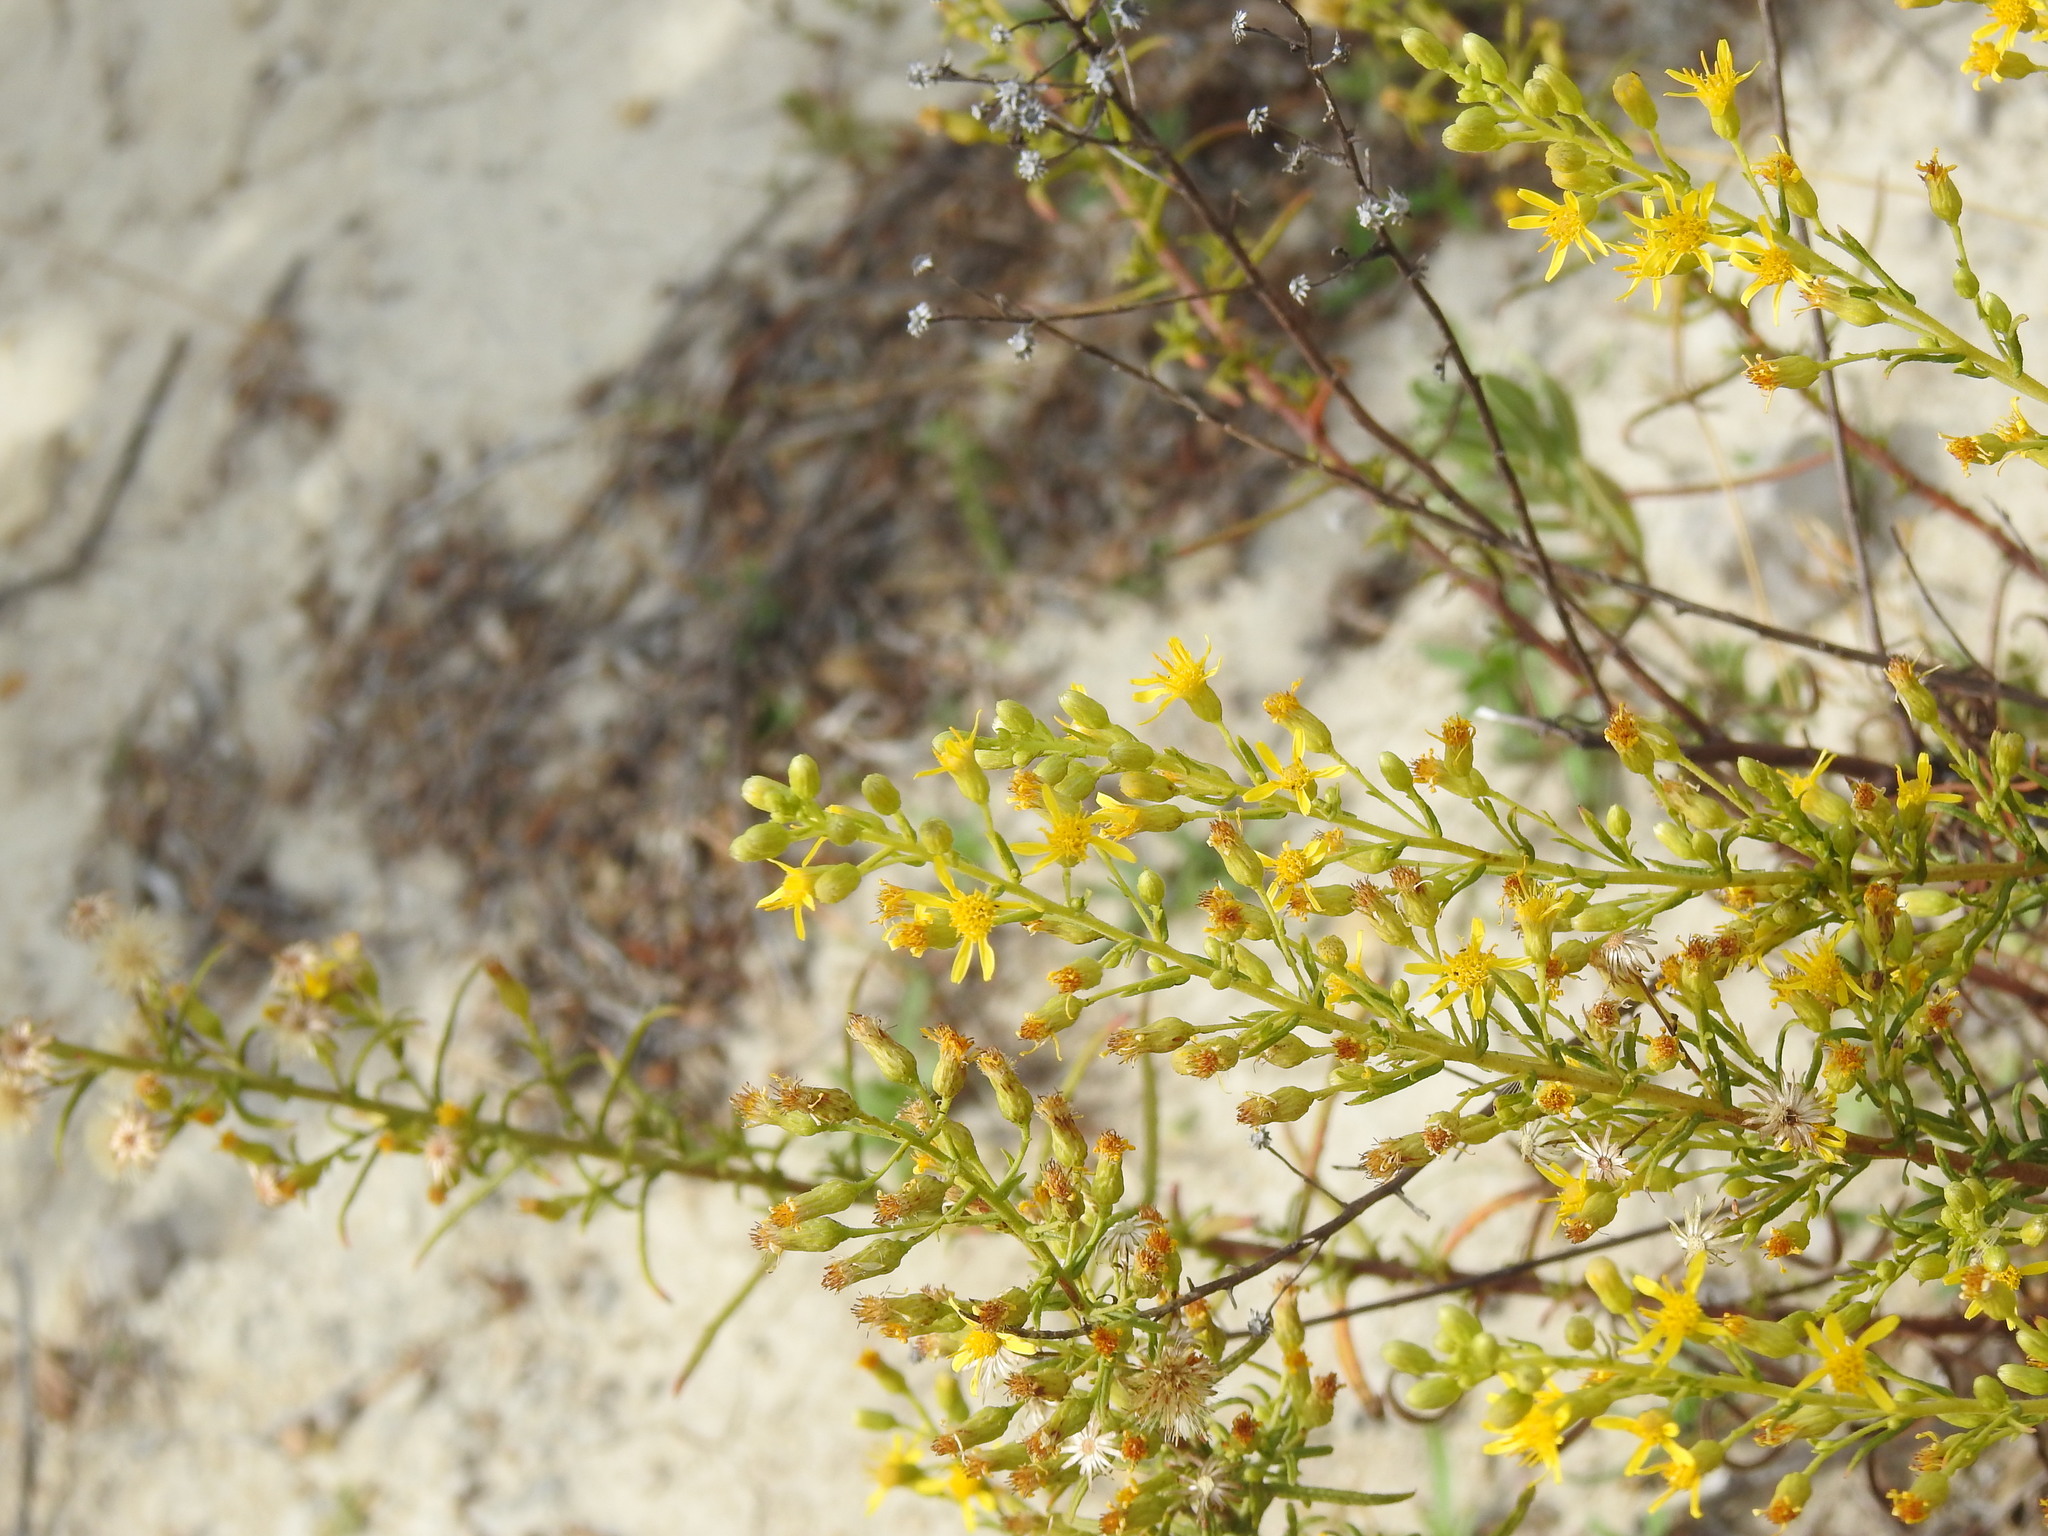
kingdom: Plantae
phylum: Tracheophyta
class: Magnoliopsida
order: Asterales
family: Asteraceae
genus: Dittrichia
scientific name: Dittrichia viscosa
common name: Woody fleabane
